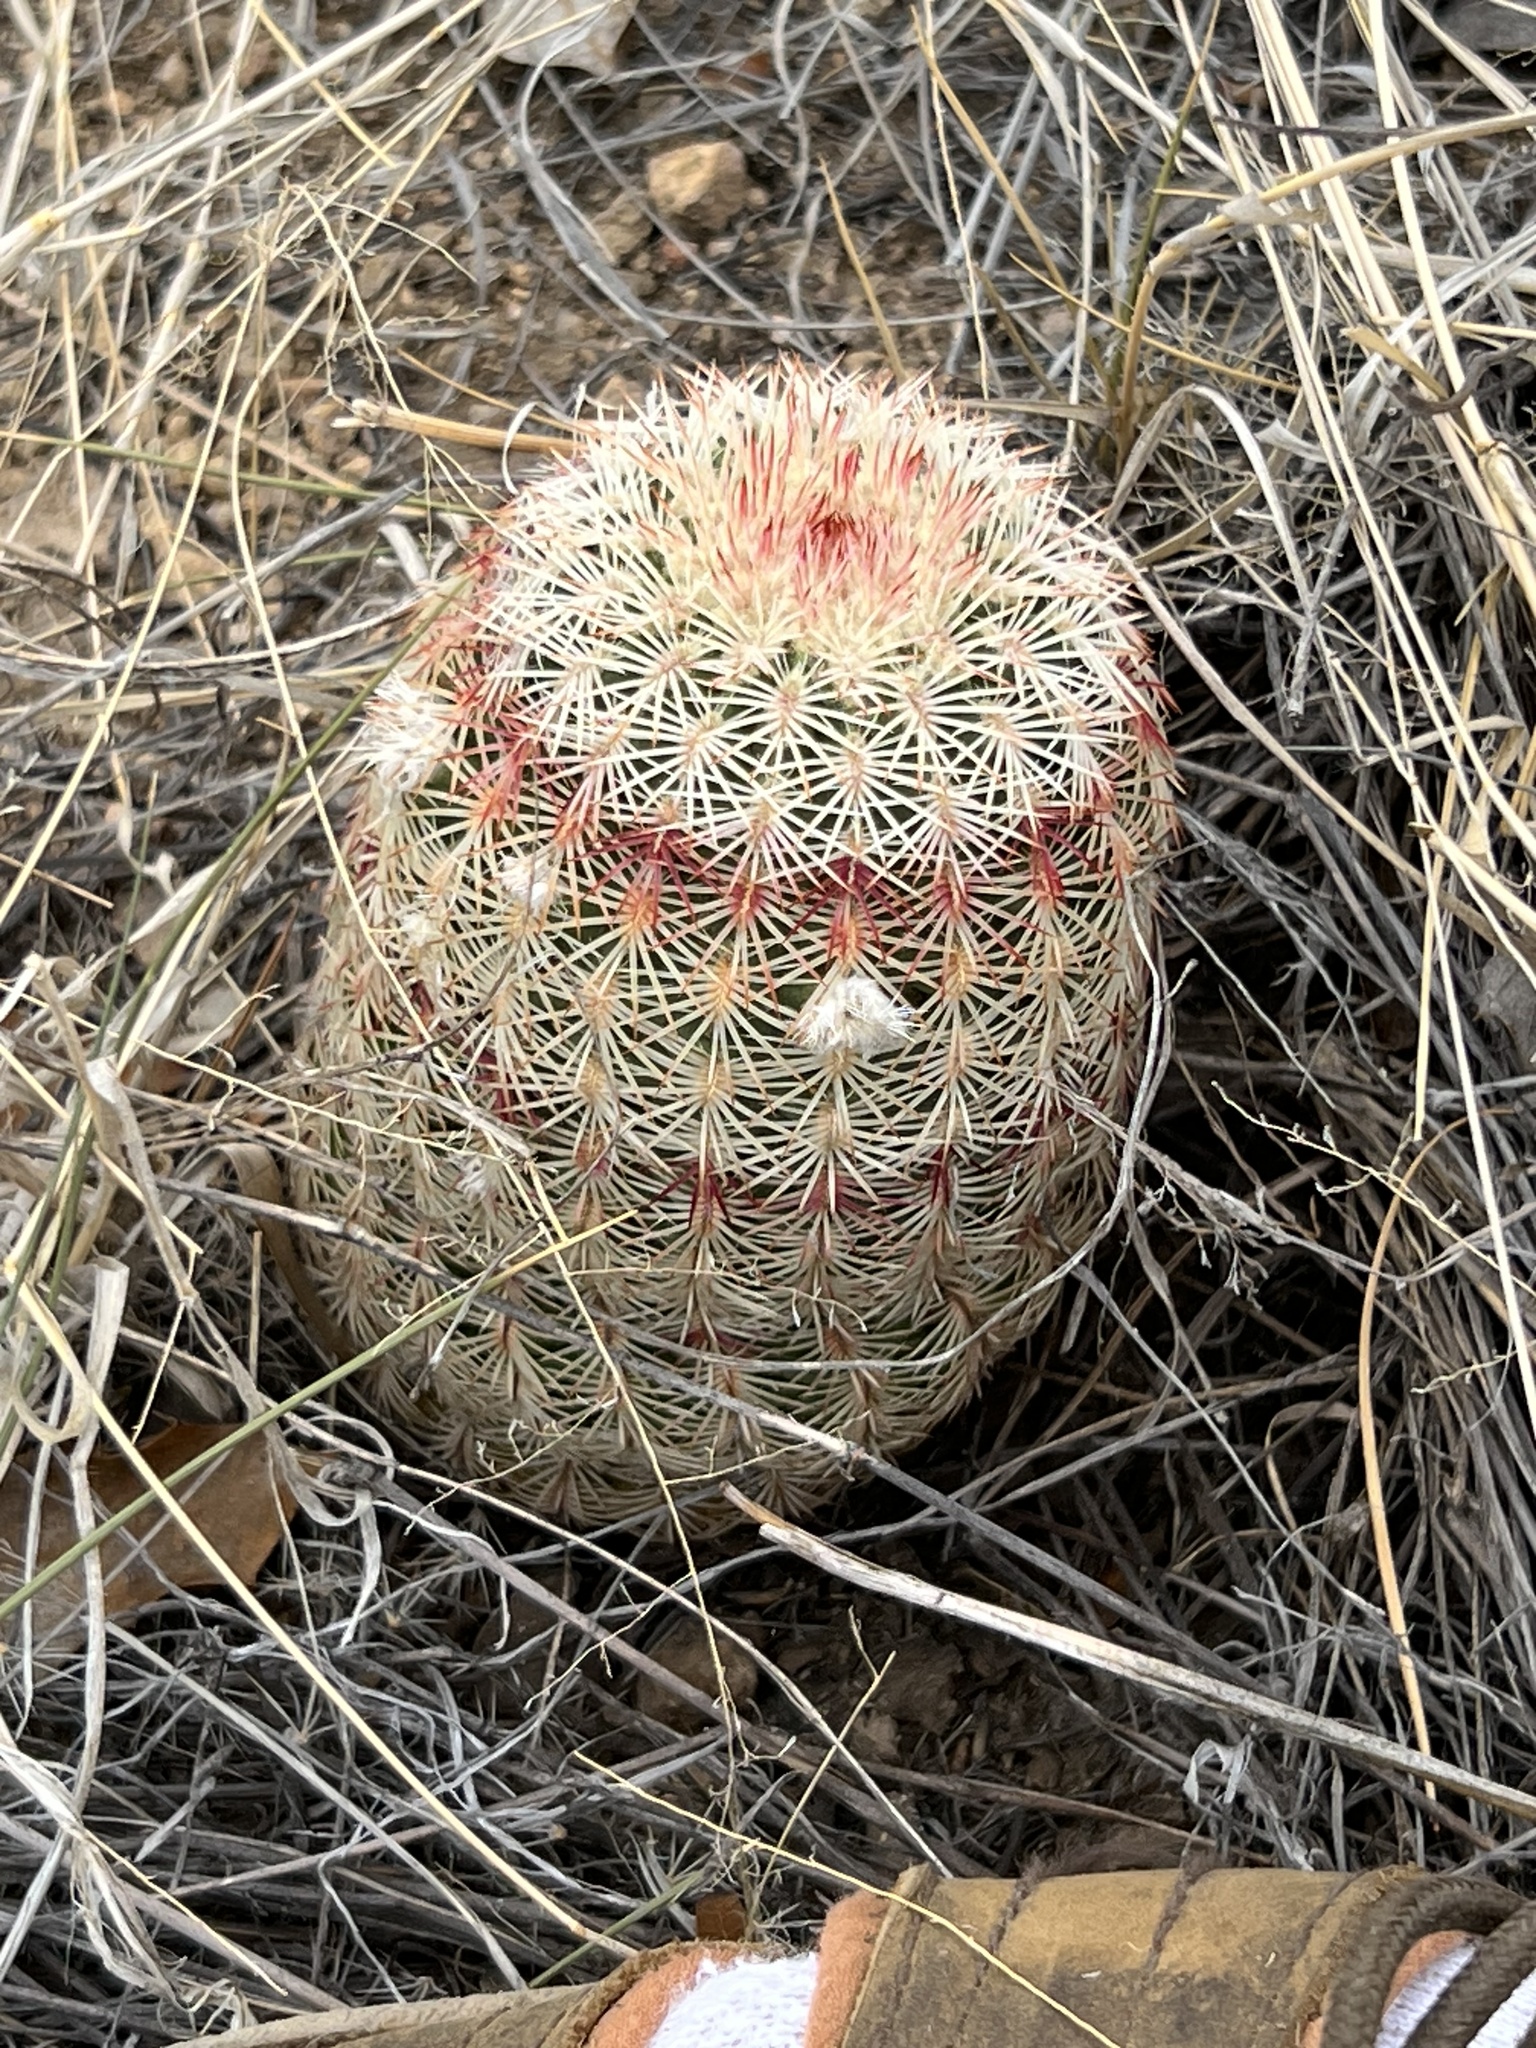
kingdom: Plantae
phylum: Tracheophyta
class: Magnoliopsida
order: Caryophyllales
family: Cactaceae
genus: Echinocereus
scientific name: Echinocereus rigidissimus
